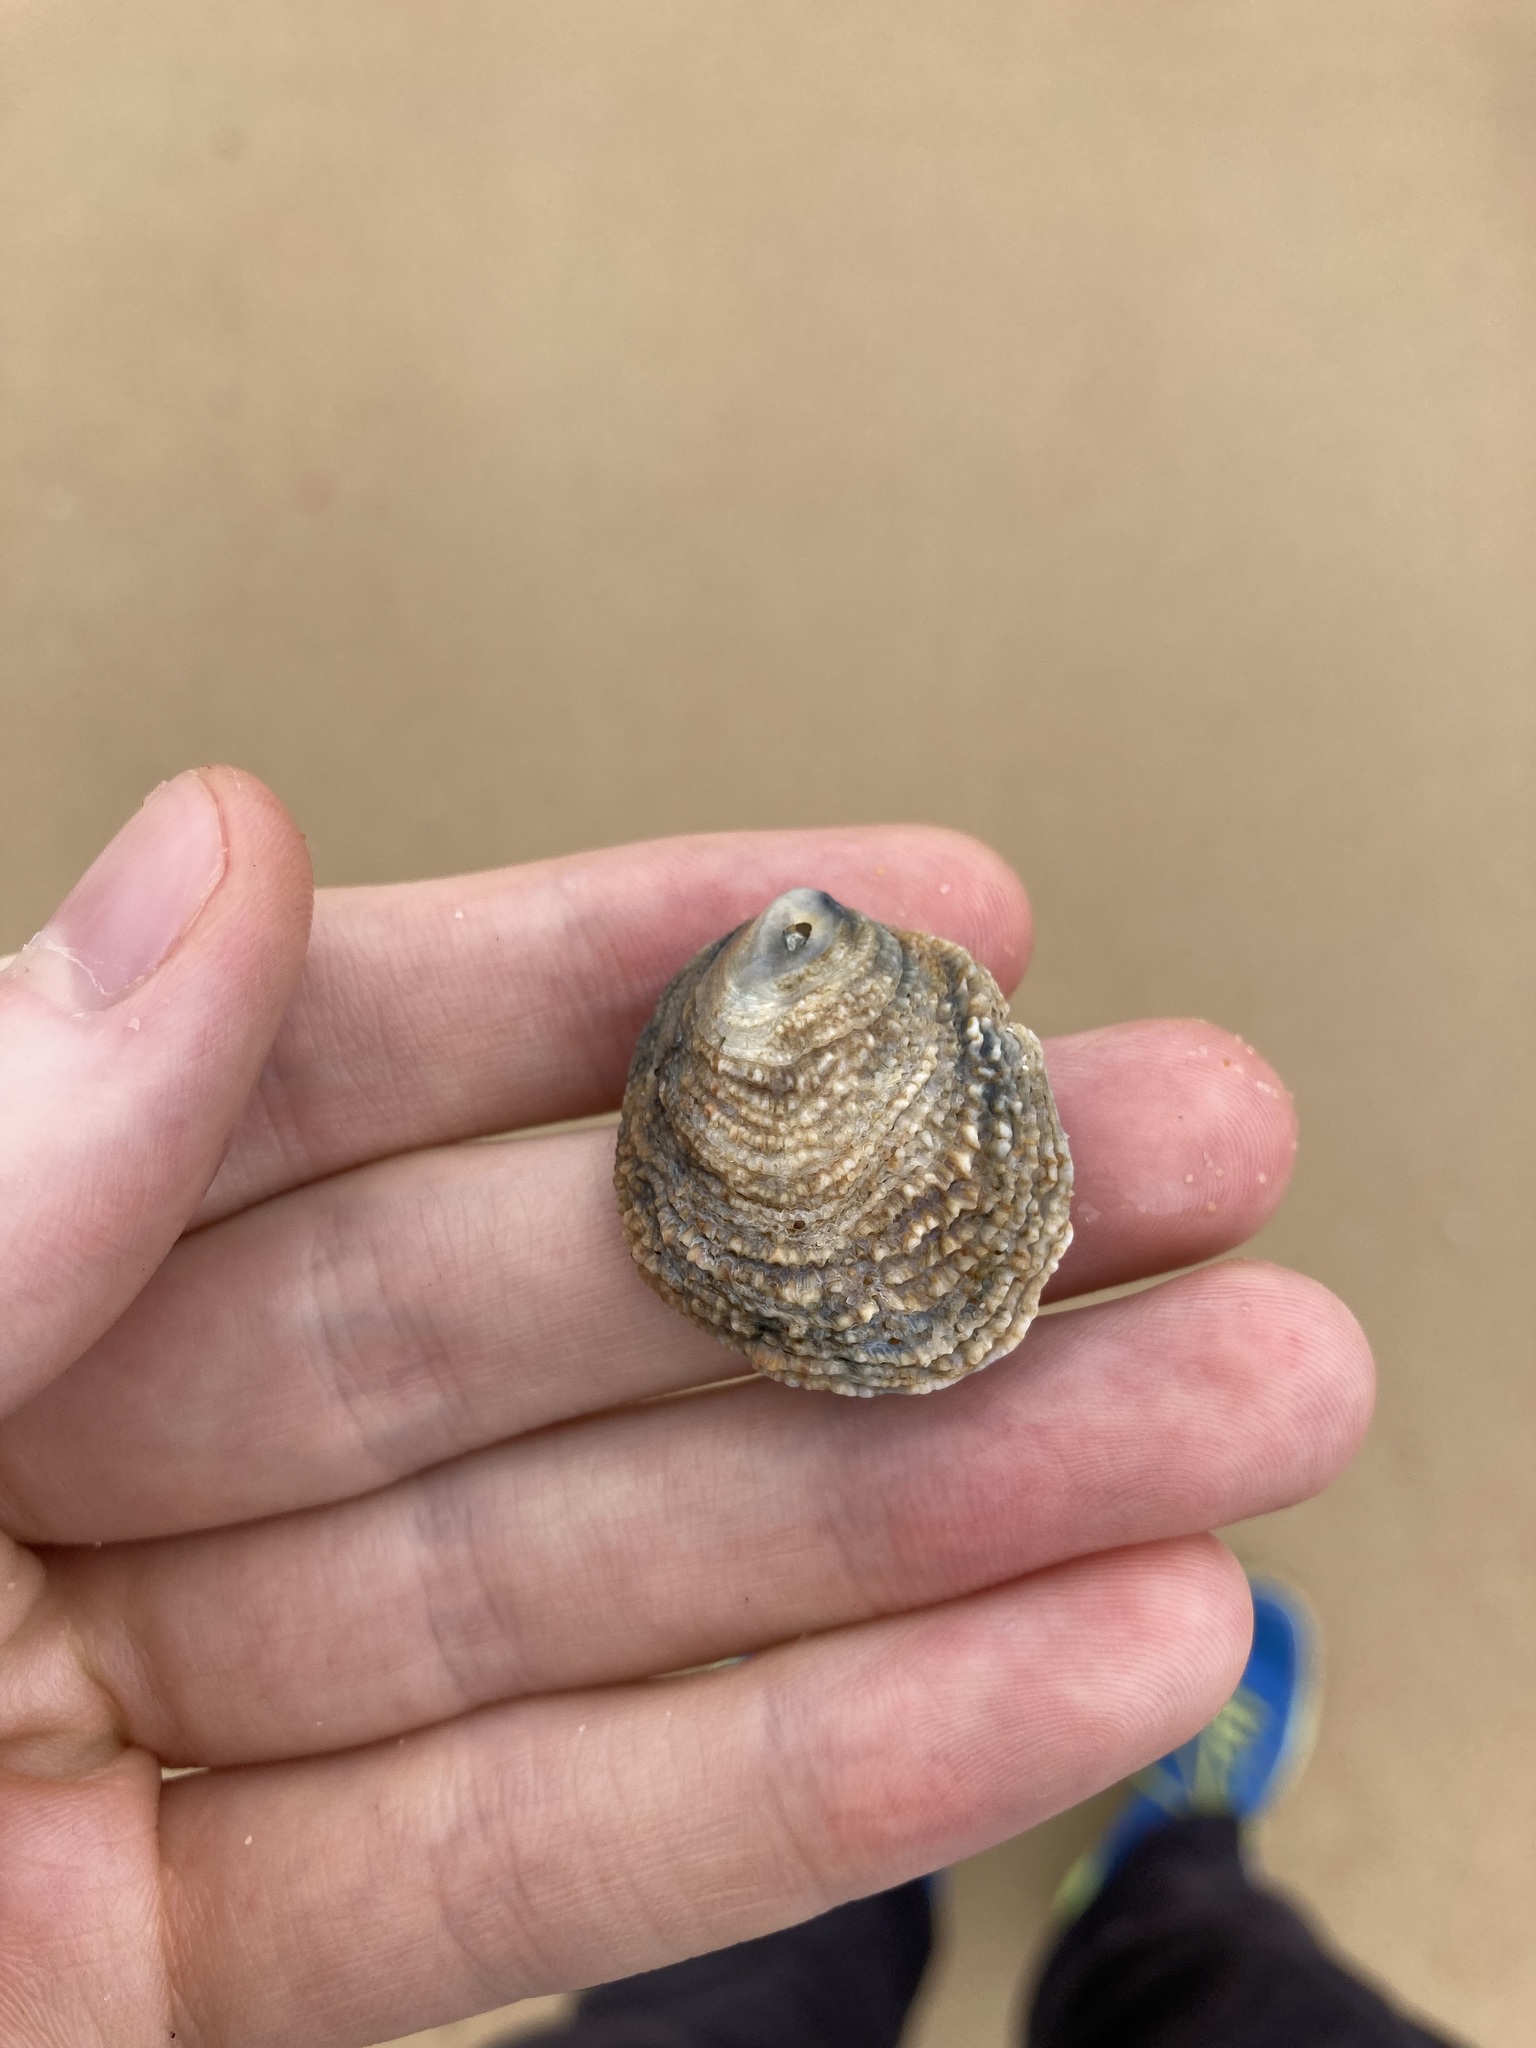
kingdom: Animalia
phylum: Mollusca
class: Bivalvia
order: Venerida
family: Chamidae
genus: Chama
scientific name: Chama asperella
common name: Mollusca
